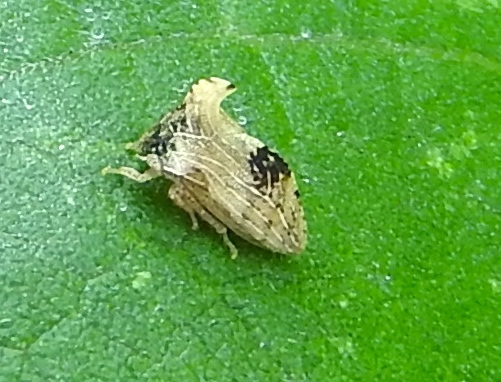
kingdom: Animalia
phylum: Arthropoda
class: Insecta
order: Hemiptera
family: Membracidae
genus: Entylia
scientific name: Entylia
